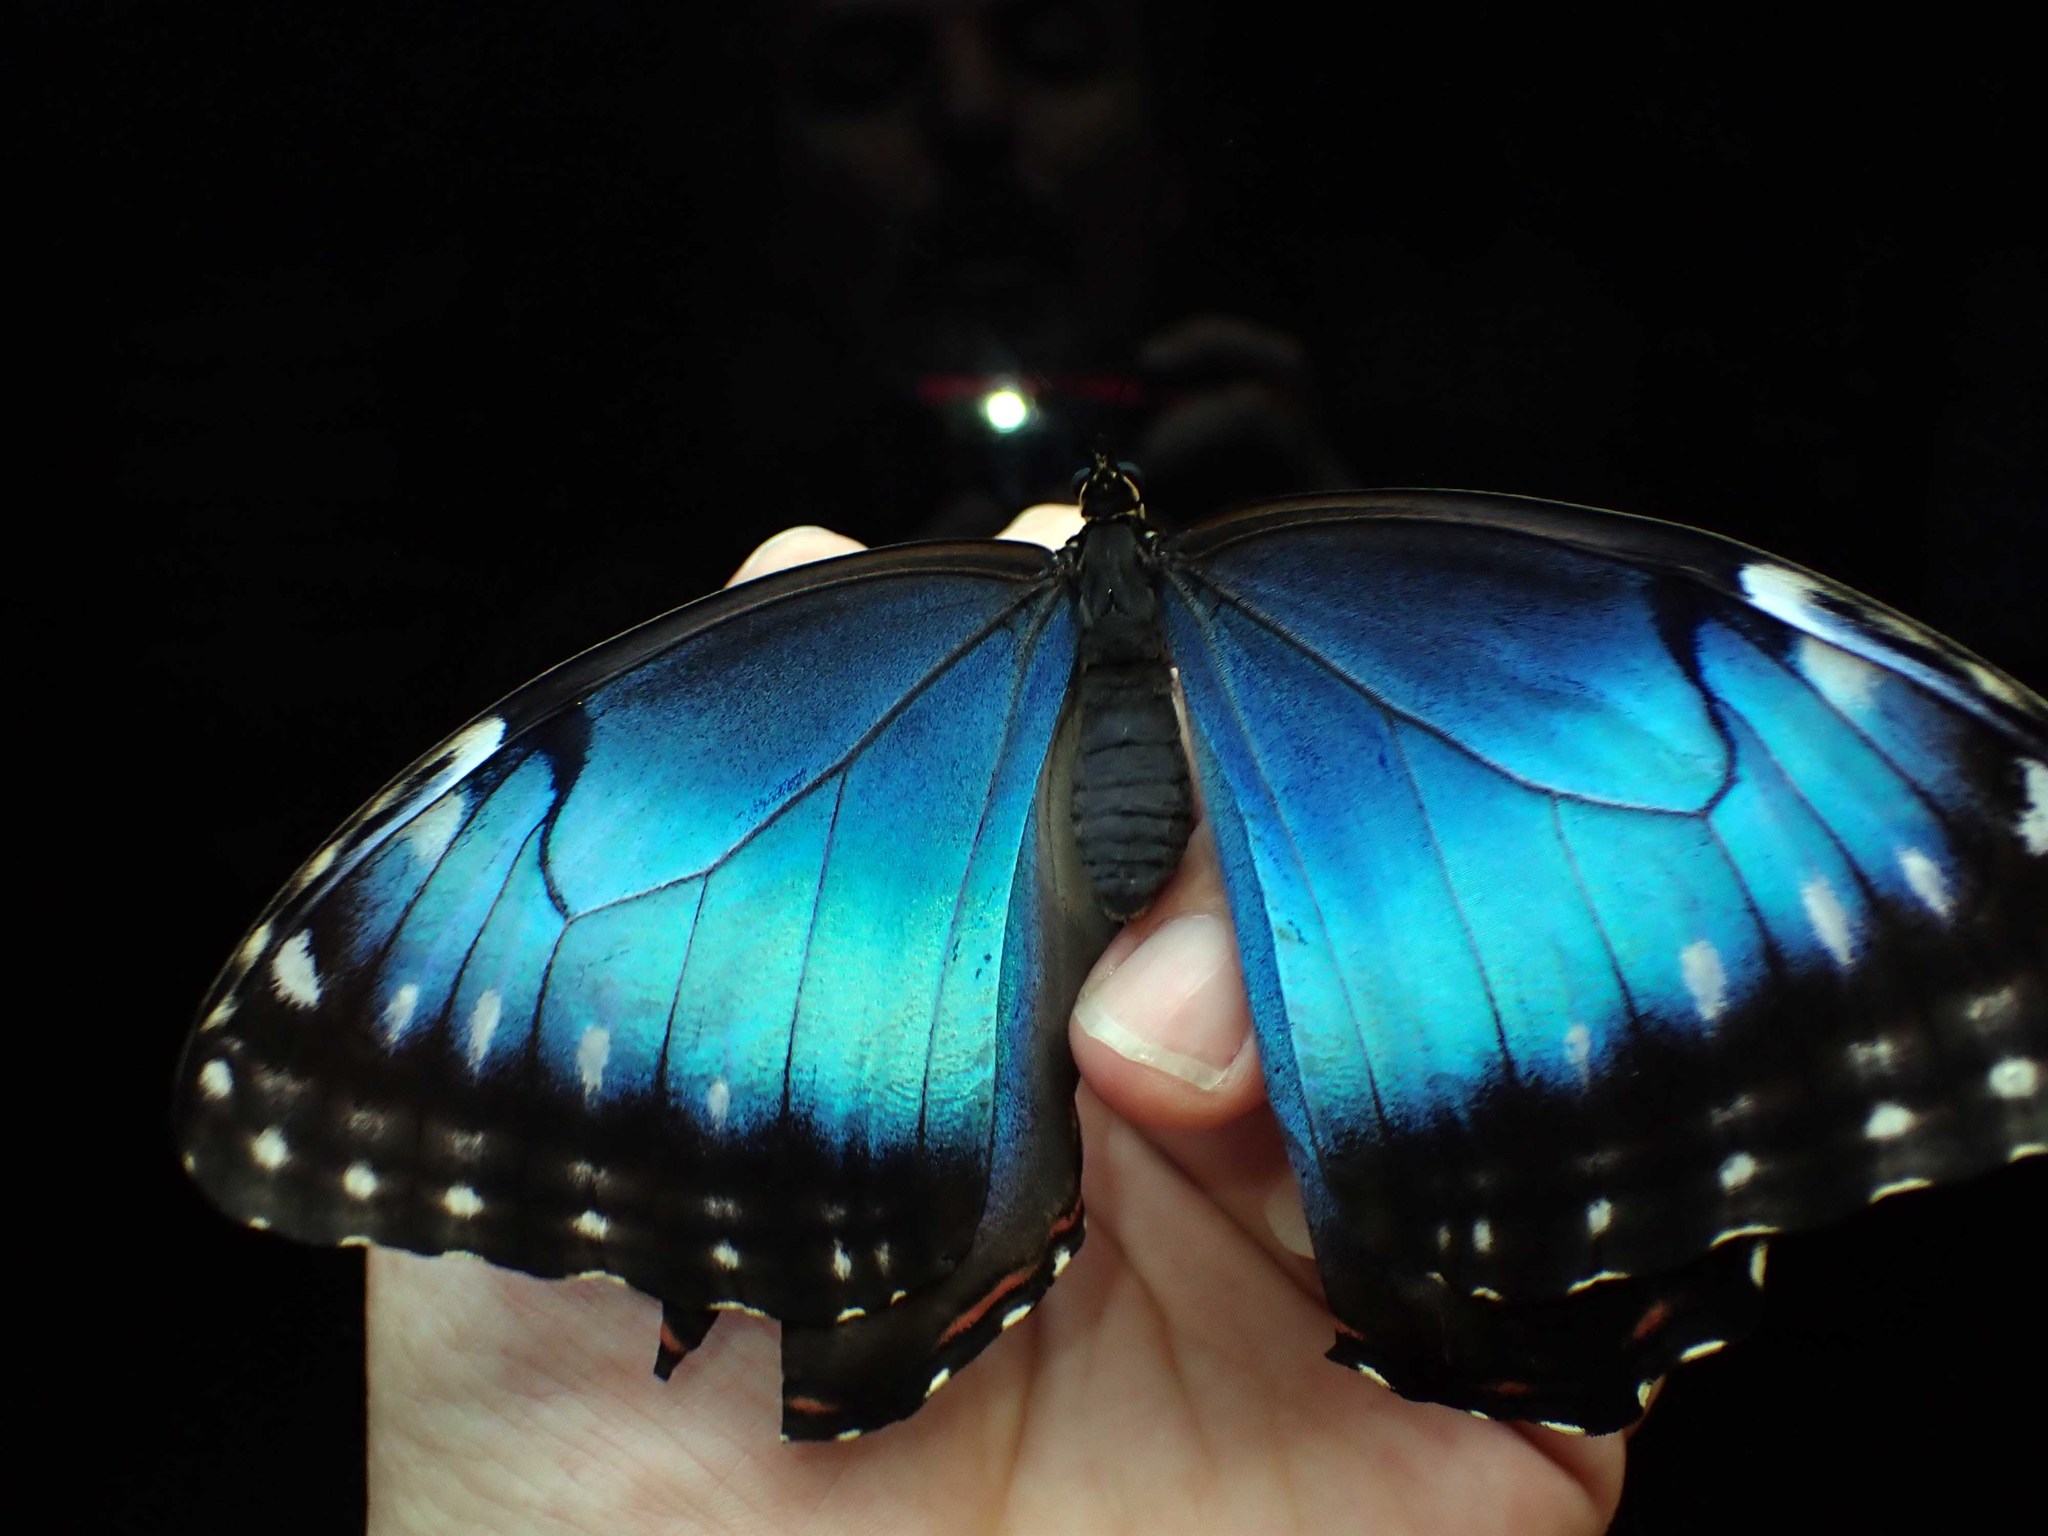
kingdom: Animalia
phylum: Arthropoda
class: Insecta
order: Lepidoptera
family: Nymphalidae
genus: Morpho
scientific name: Morpho helenor
